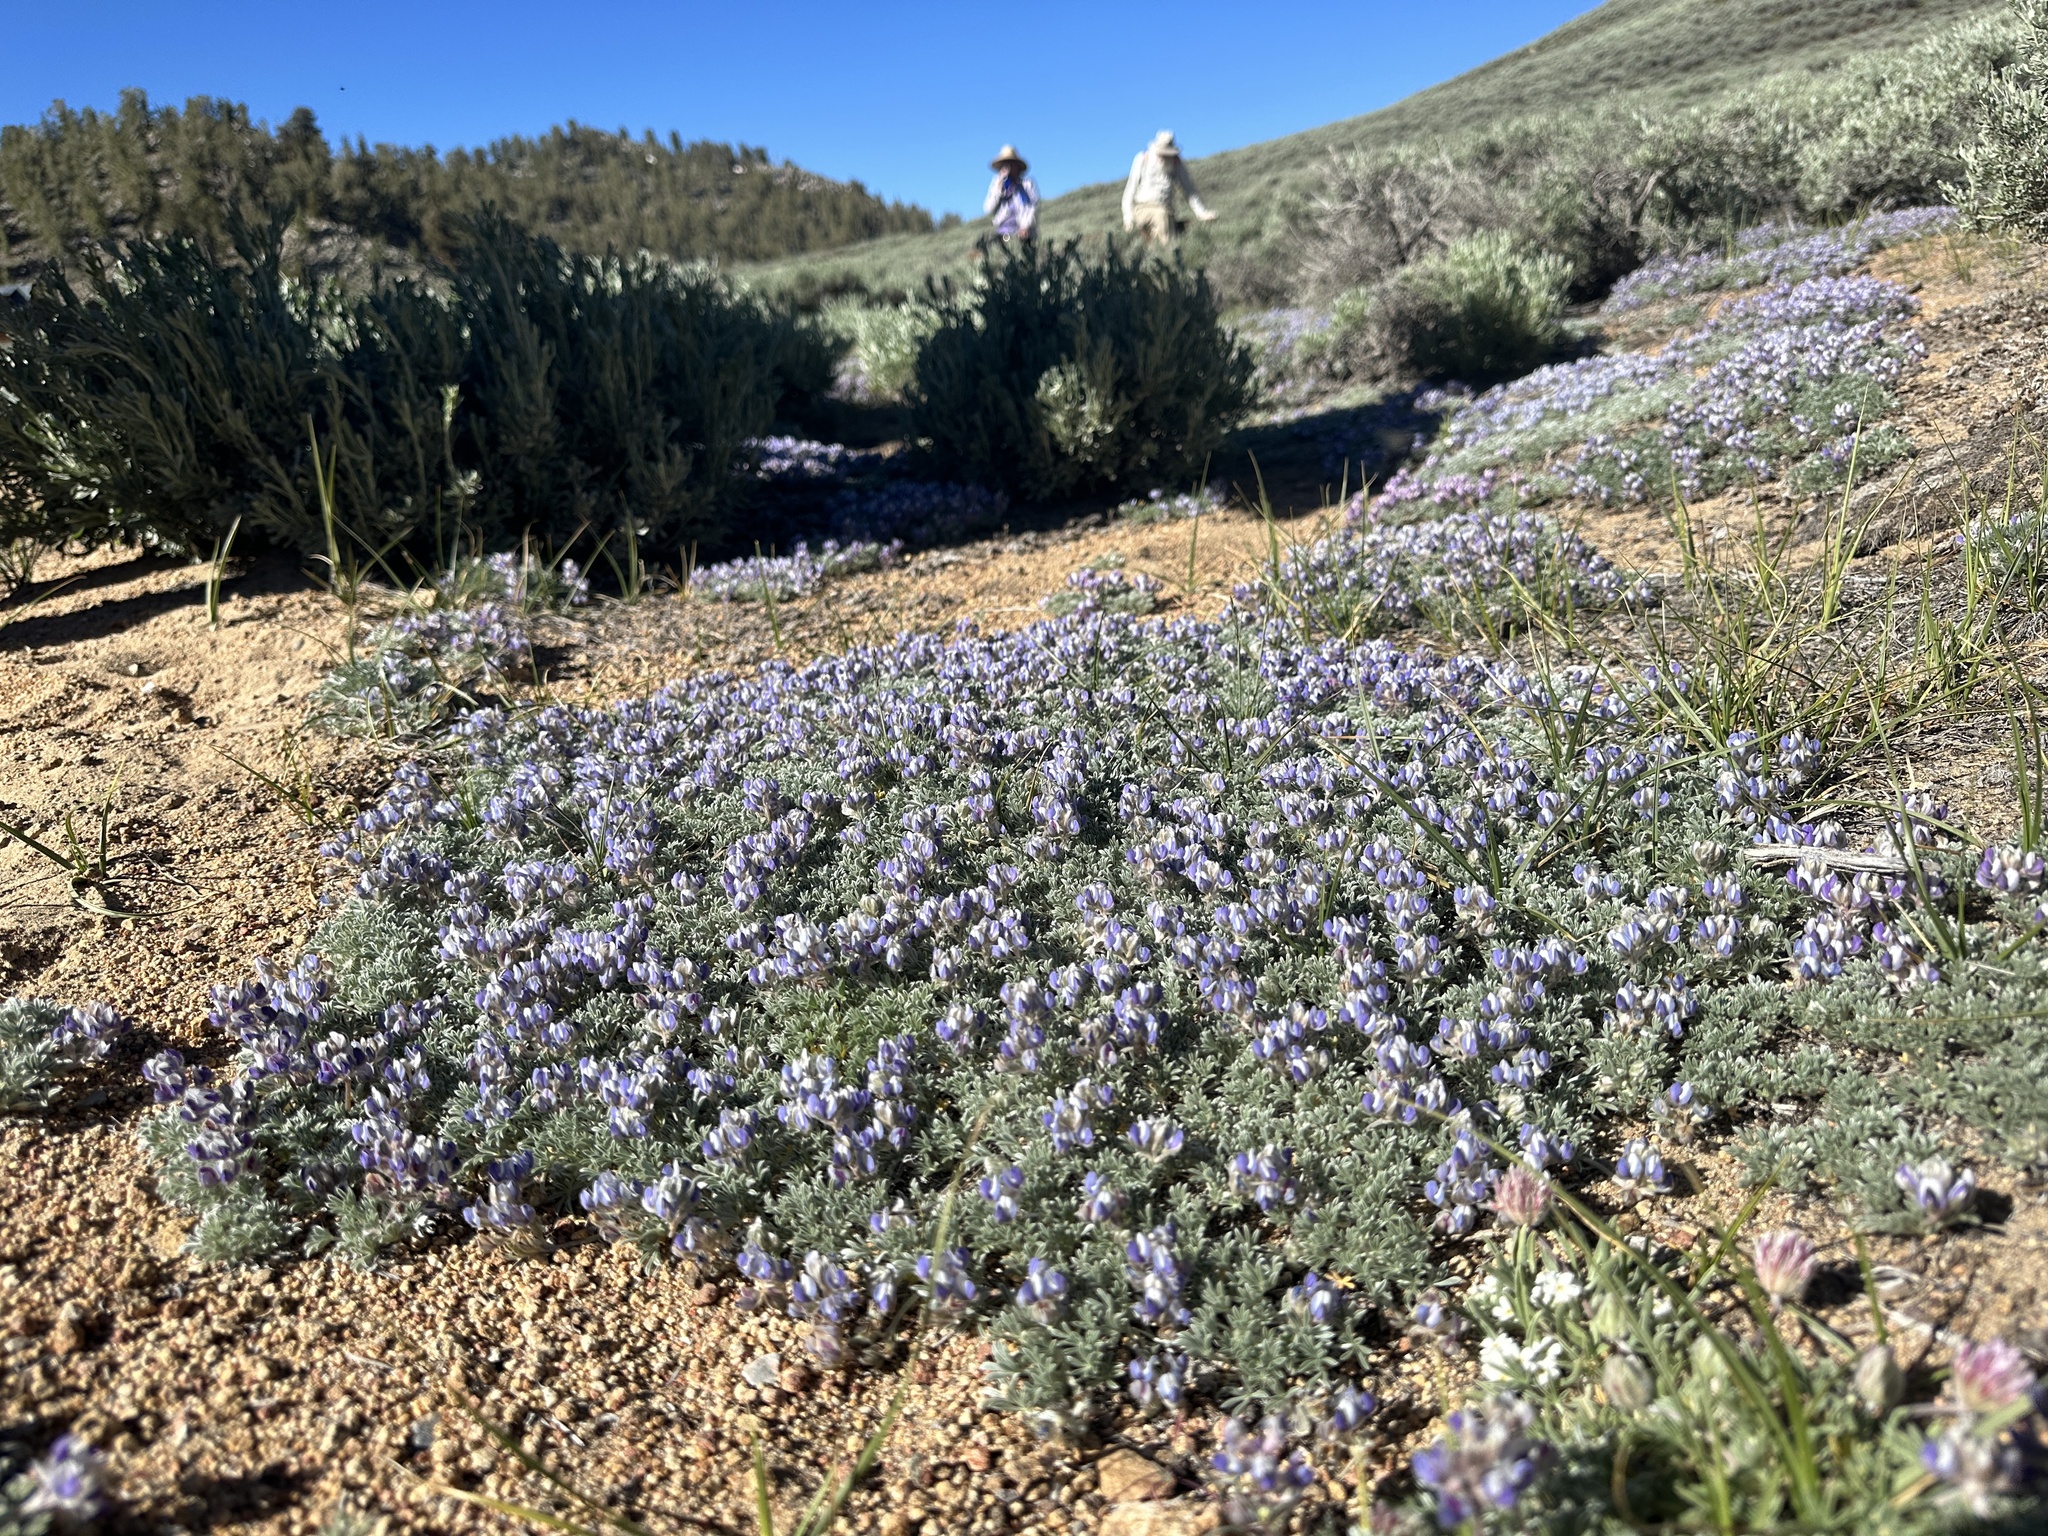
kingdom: Plantae
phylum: Tracheophyta
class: Magnoliopsida
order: Fabales
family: Fabaceae
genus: Lupinus
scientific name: Lupinus breweri
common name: Brewer's lupine
